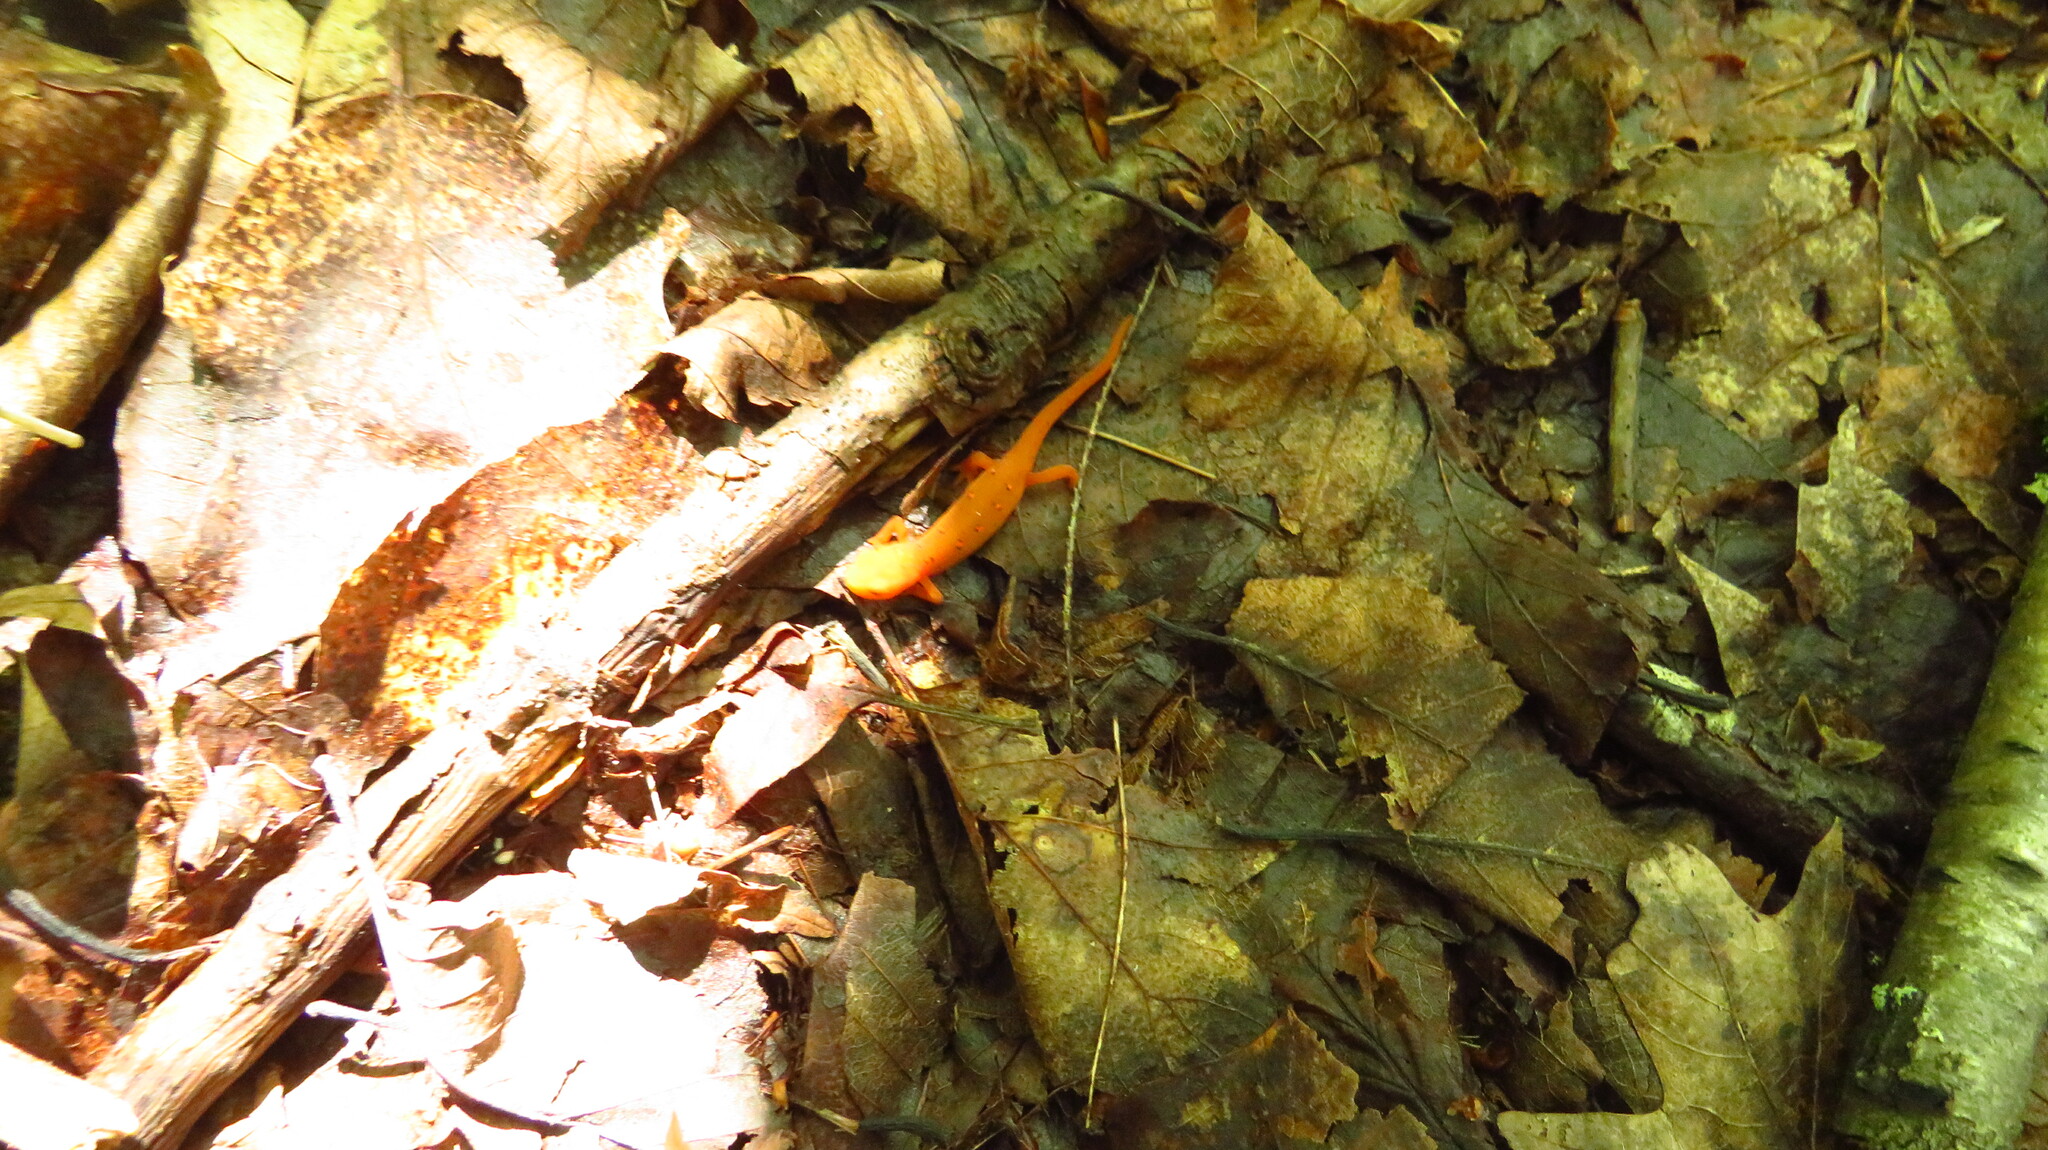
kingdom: Animalia
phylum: Chordata
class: Amphibia
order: Caudata
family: Salamandridae
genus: Notophthalmus
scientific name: Notophthalmus viridescens
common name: Eastern newt
